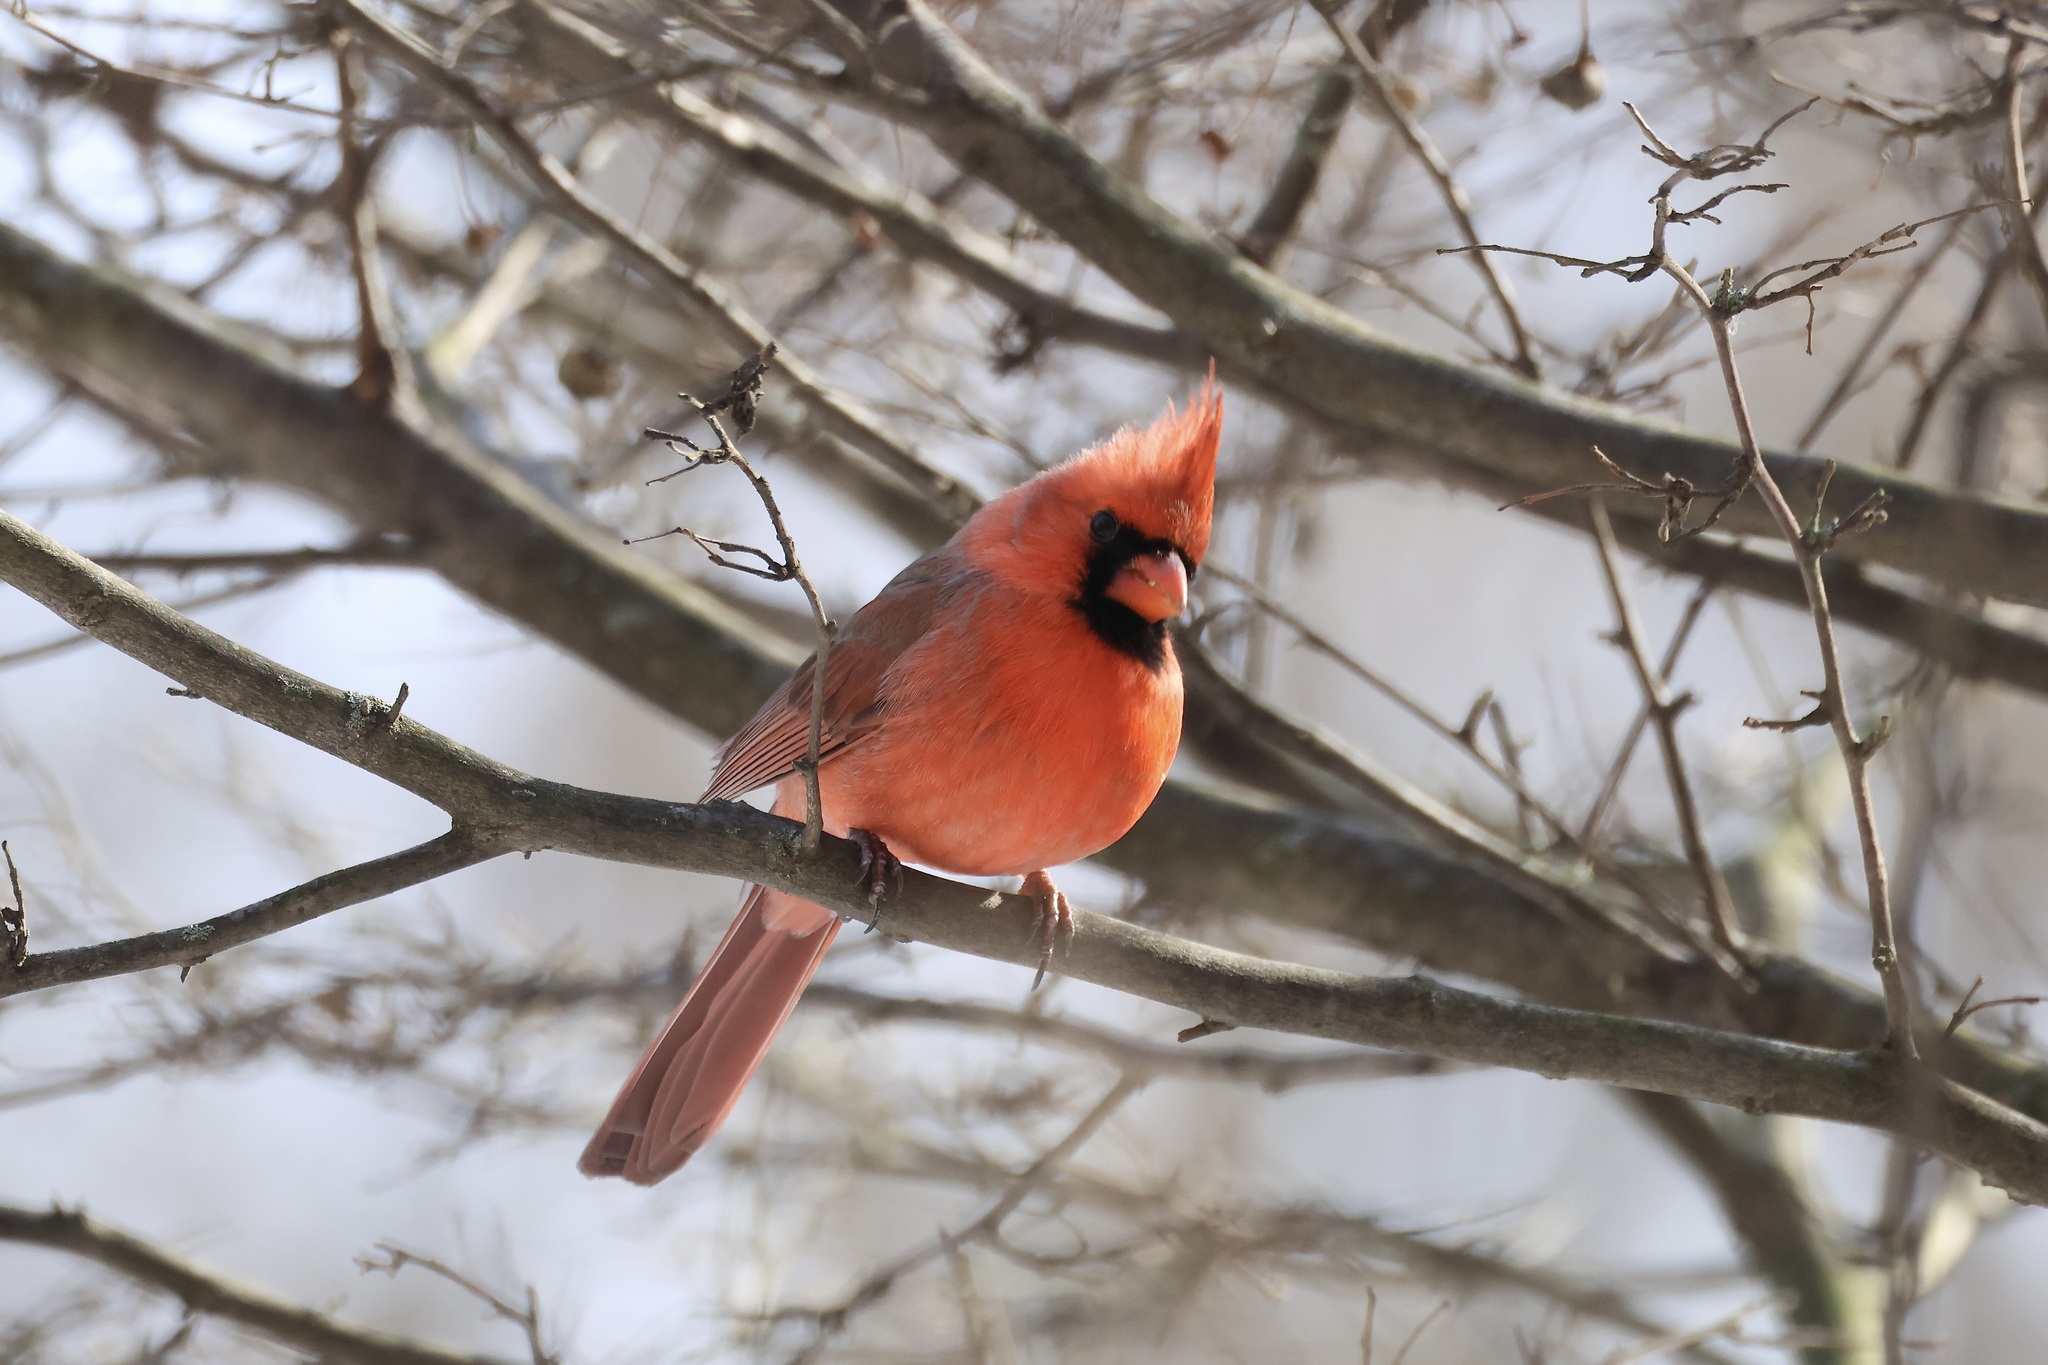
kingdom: Animalia
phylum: Chordata
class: Aves
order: Passeriformes
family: Cardinalidae
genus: Cardinalis
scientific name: Cardinalis cardinalis
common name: Northern cardinal
